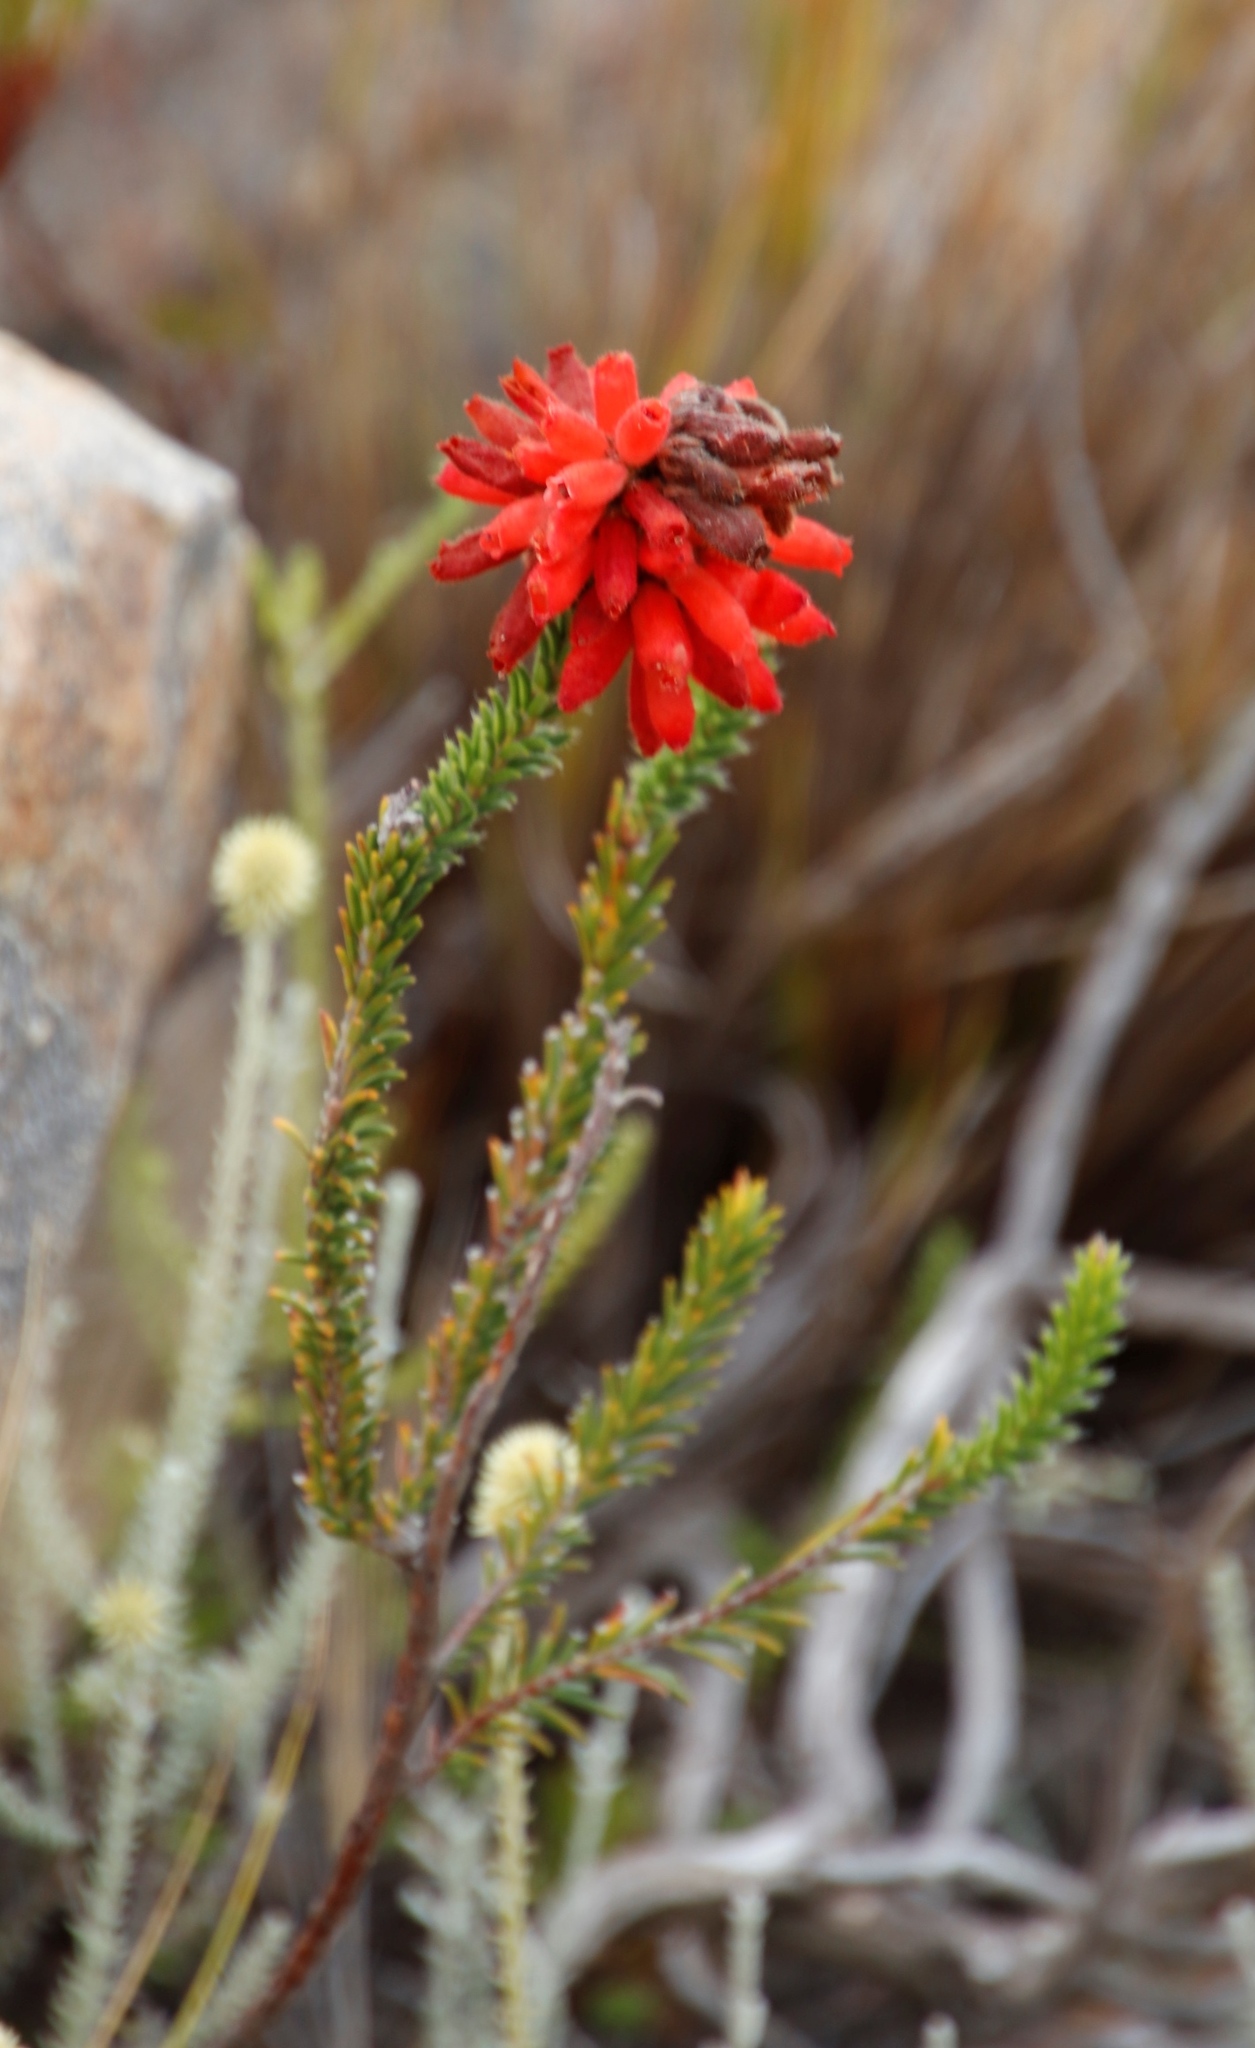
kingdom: Plantae
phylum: Tracheophyta
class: Magnoliopsida
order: Ericales
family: Ericaceae
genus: Erica
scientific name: Erica cerinthoides
